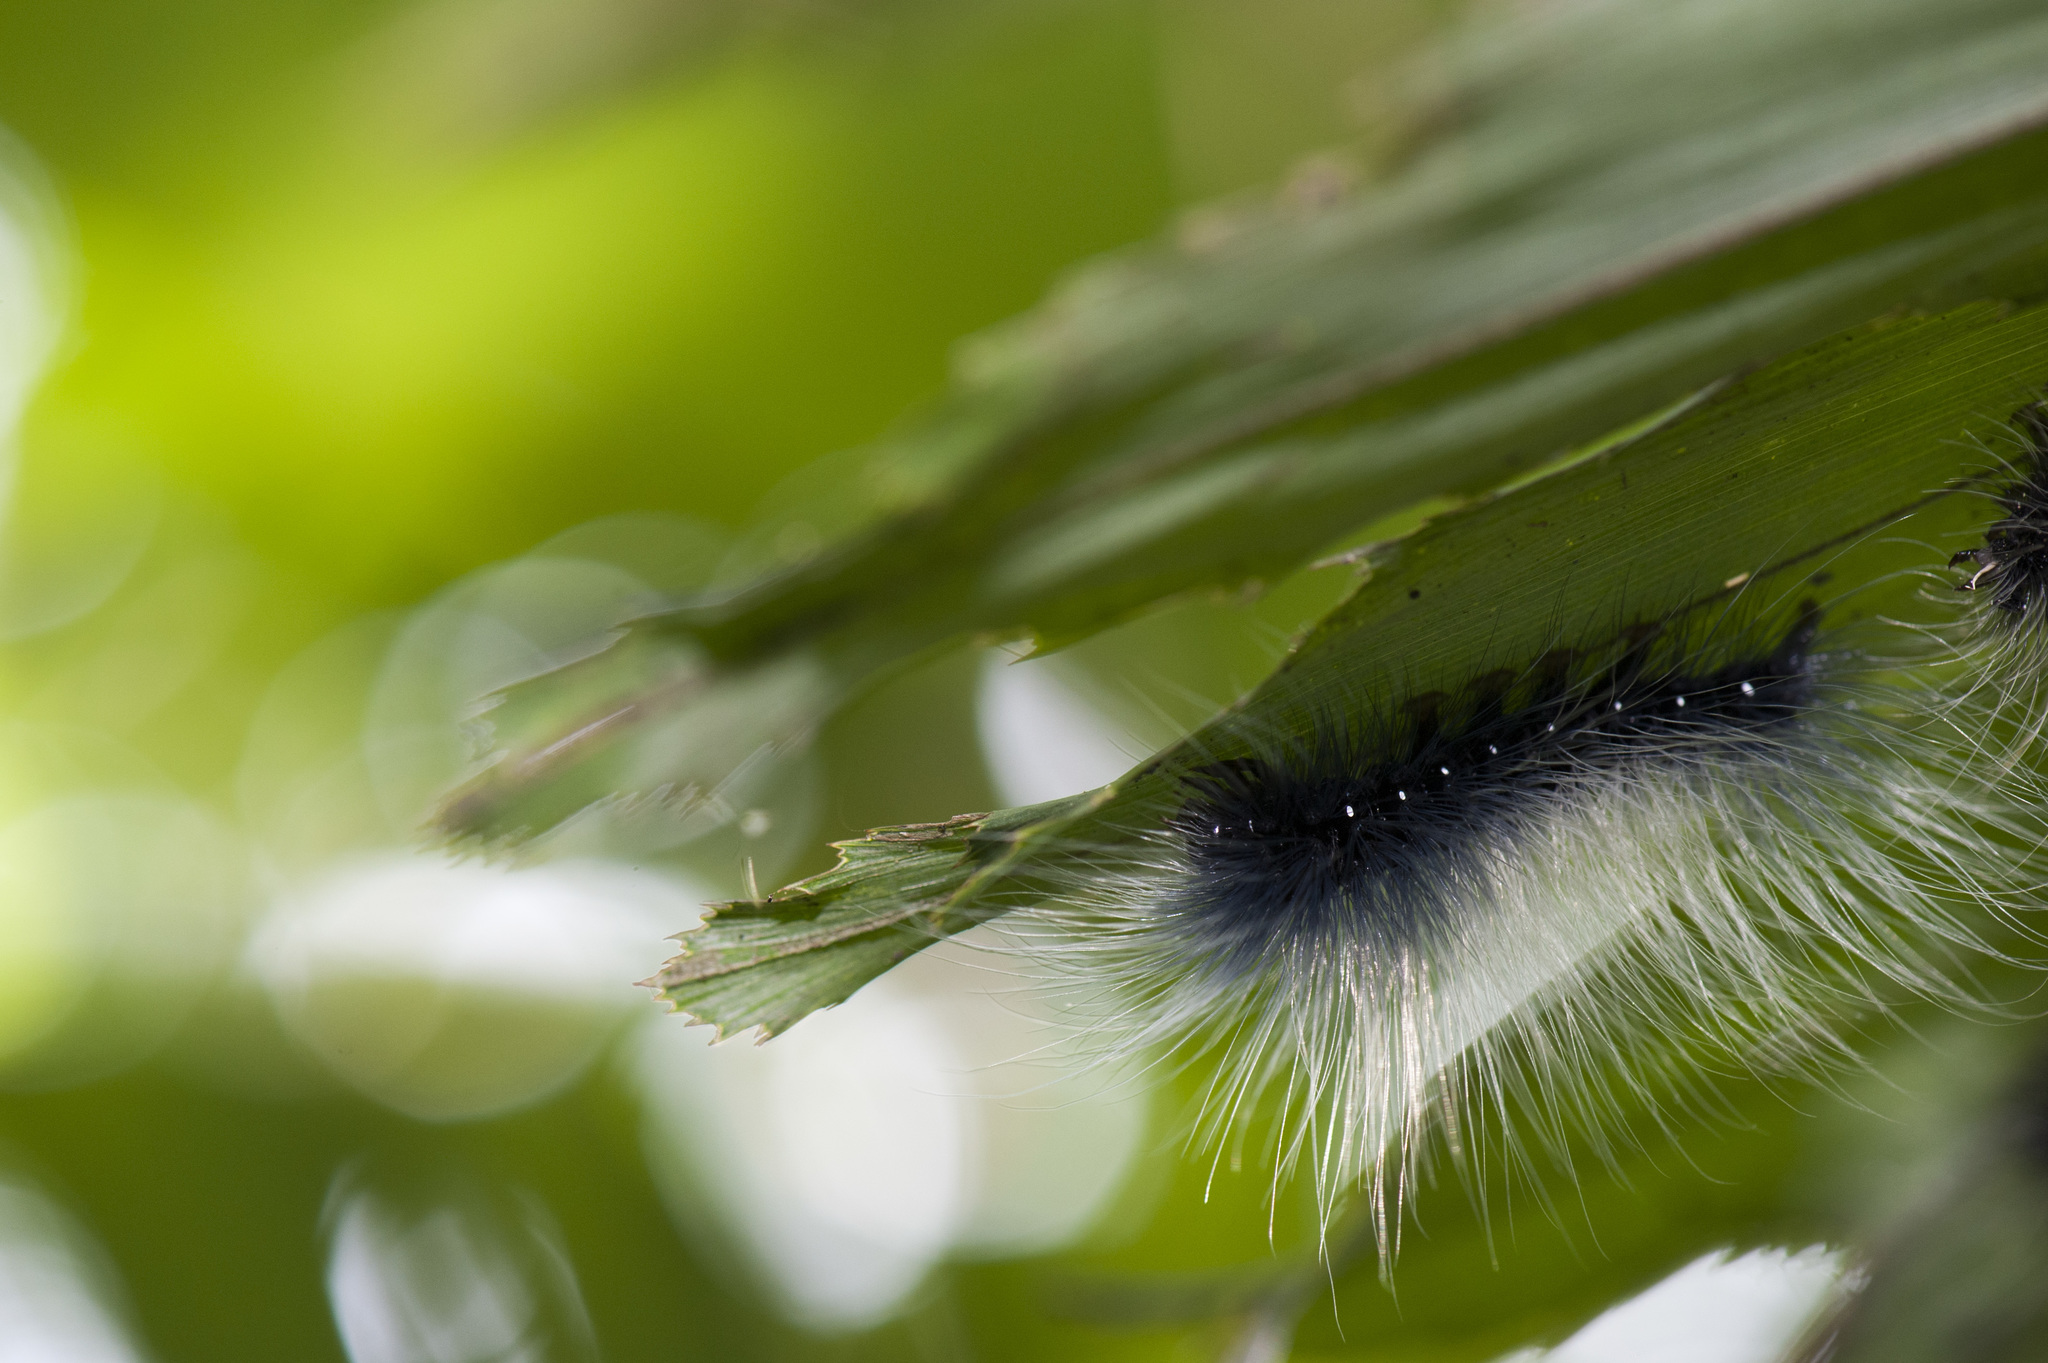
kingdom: Animalia
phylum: Arthropoda
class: Insecta
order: Lepidoptera
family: Erebidae
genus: Macrobrochis
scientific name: Macrobrochis gigas
